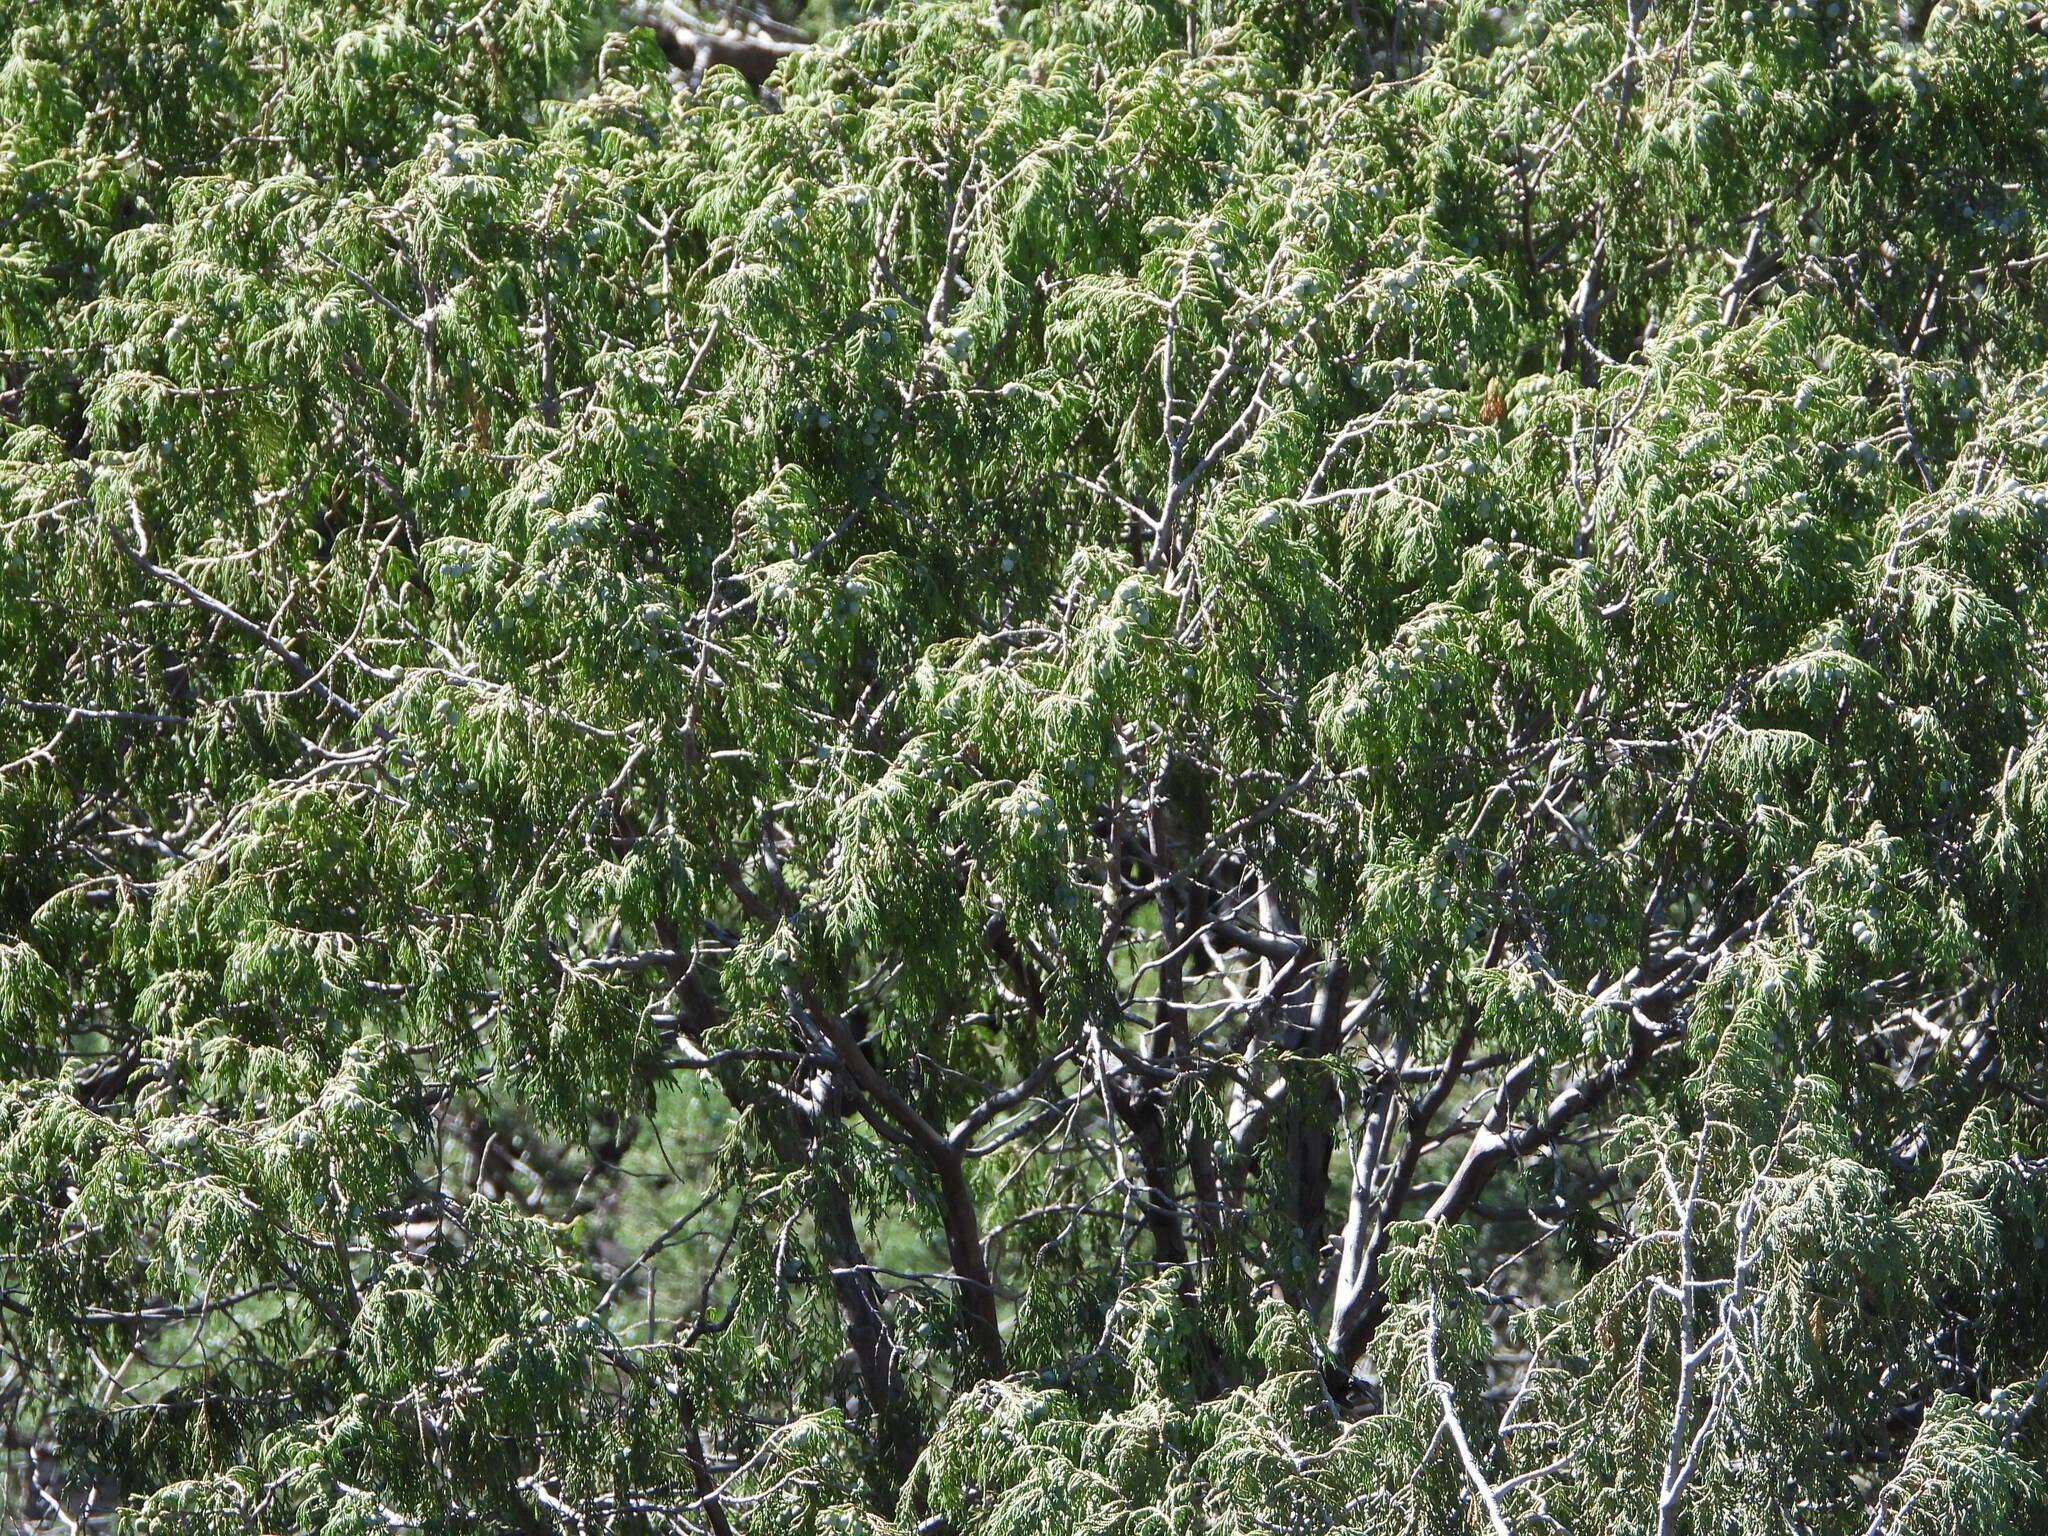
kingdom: Plantae
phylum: Tracheophyta
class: Pinopsida
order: Pinales
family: Cupressaceae
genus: Juniperus
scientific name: Juniperus flaccida
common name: Drooping juniper
